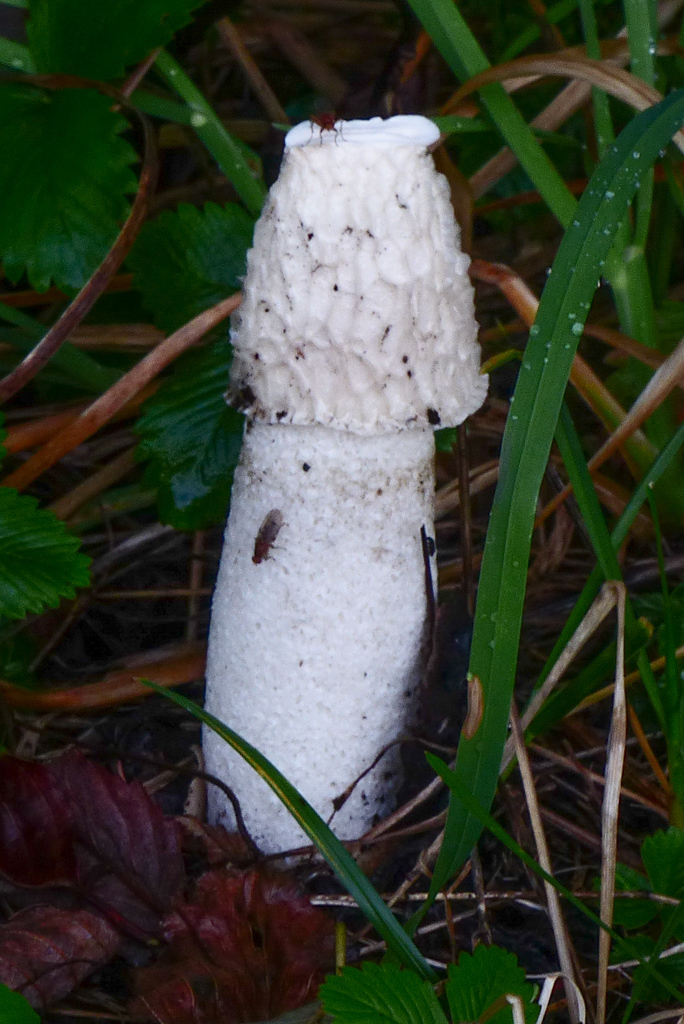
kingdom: Fungi
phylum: Basidiomycota
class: Agaricomycetes
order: Phallales
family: Phallaceae
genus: Phallus
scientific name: Phallus impudicus
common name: Common stinkhorn
